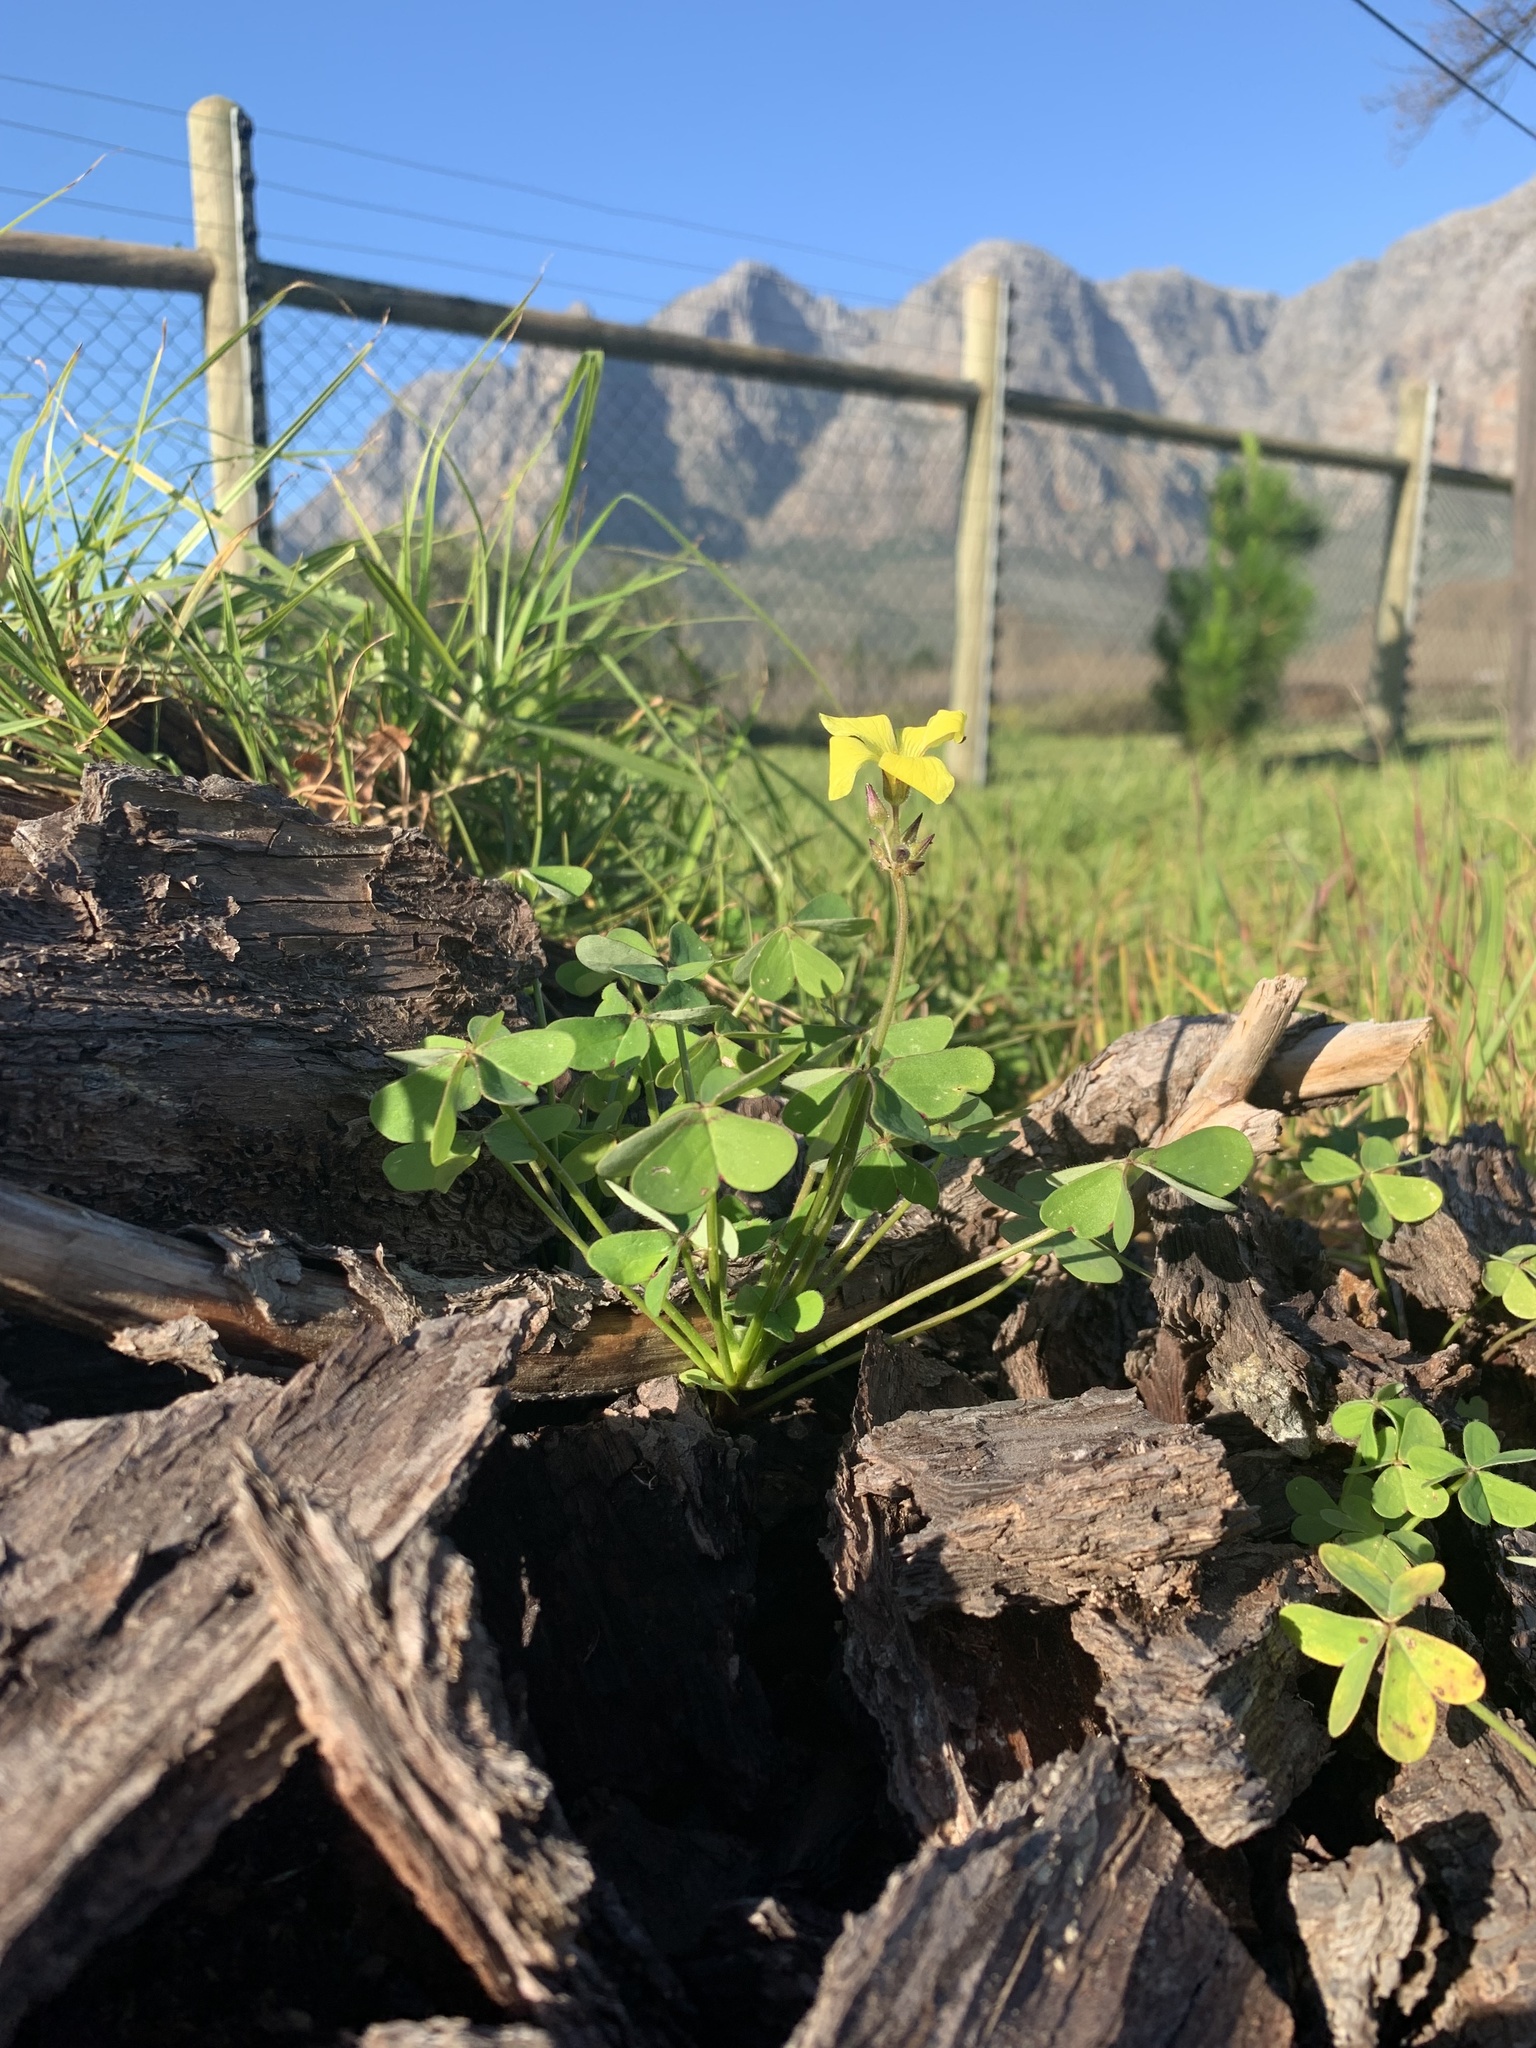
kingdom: Plantae
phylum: Tracheophyta
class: Magnoliopsida
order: Oxalidales
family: Oxalidaceae
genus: Oxalis
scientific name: Oxalis pes-caprae
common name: Bermuda-buttercup
